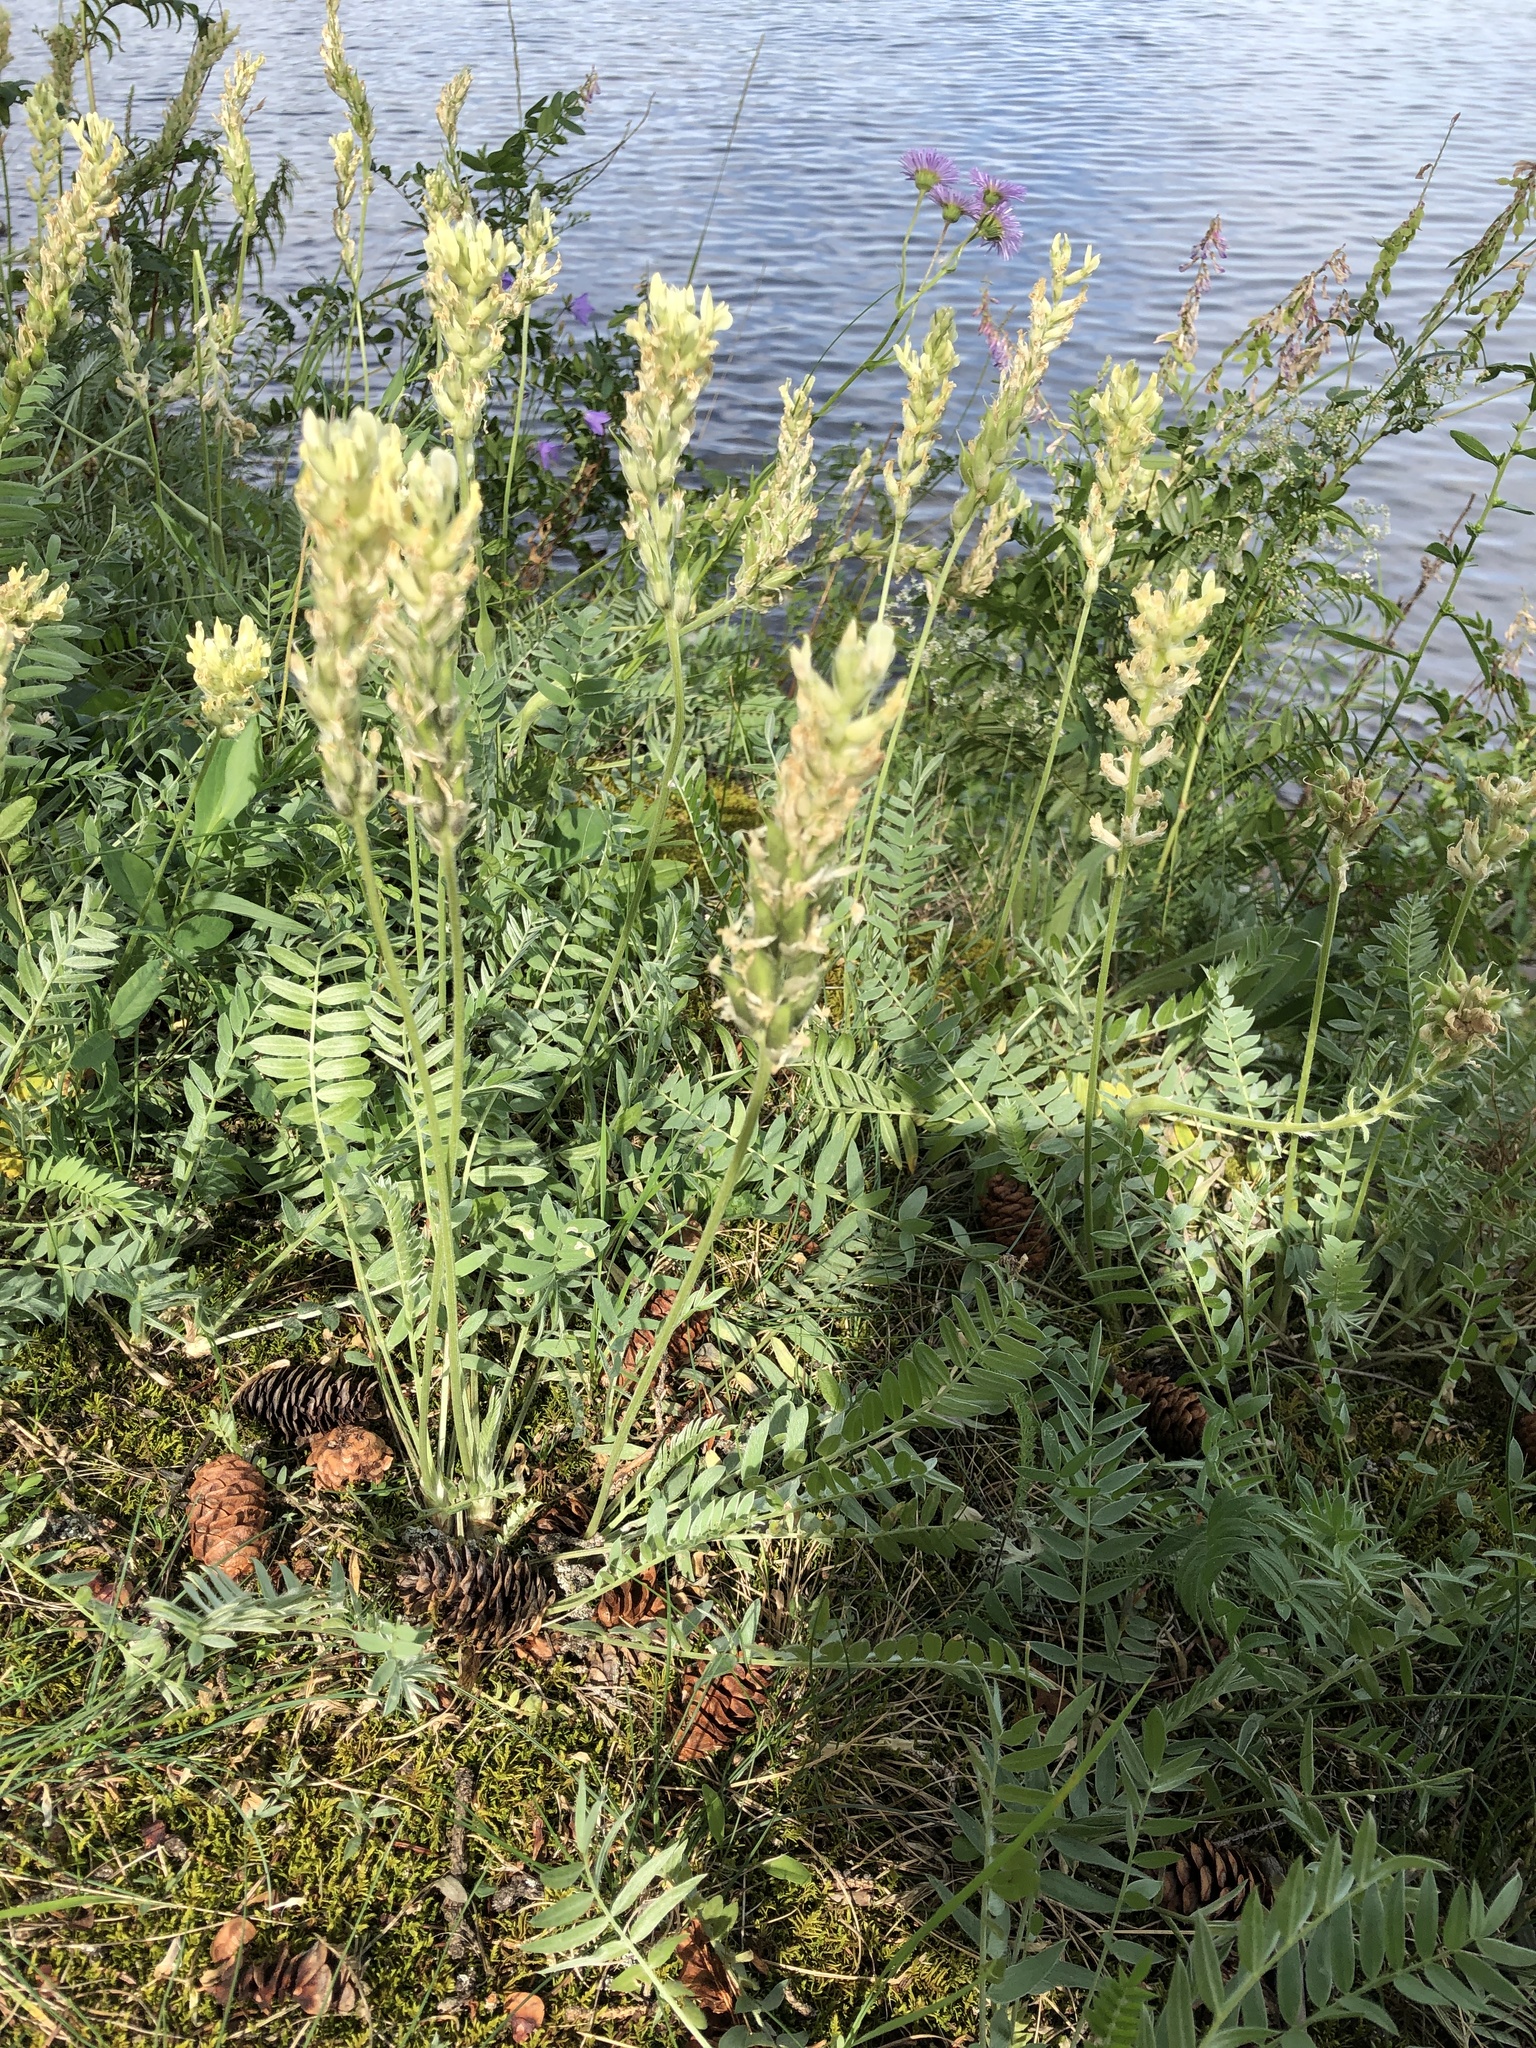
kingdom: Plantae
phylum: Tracheophyta
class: Magnoliopsida
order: Fabales
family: Fabaceae
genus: Oxytropis
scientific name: Oxytropis campestris
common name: Field locoweed
